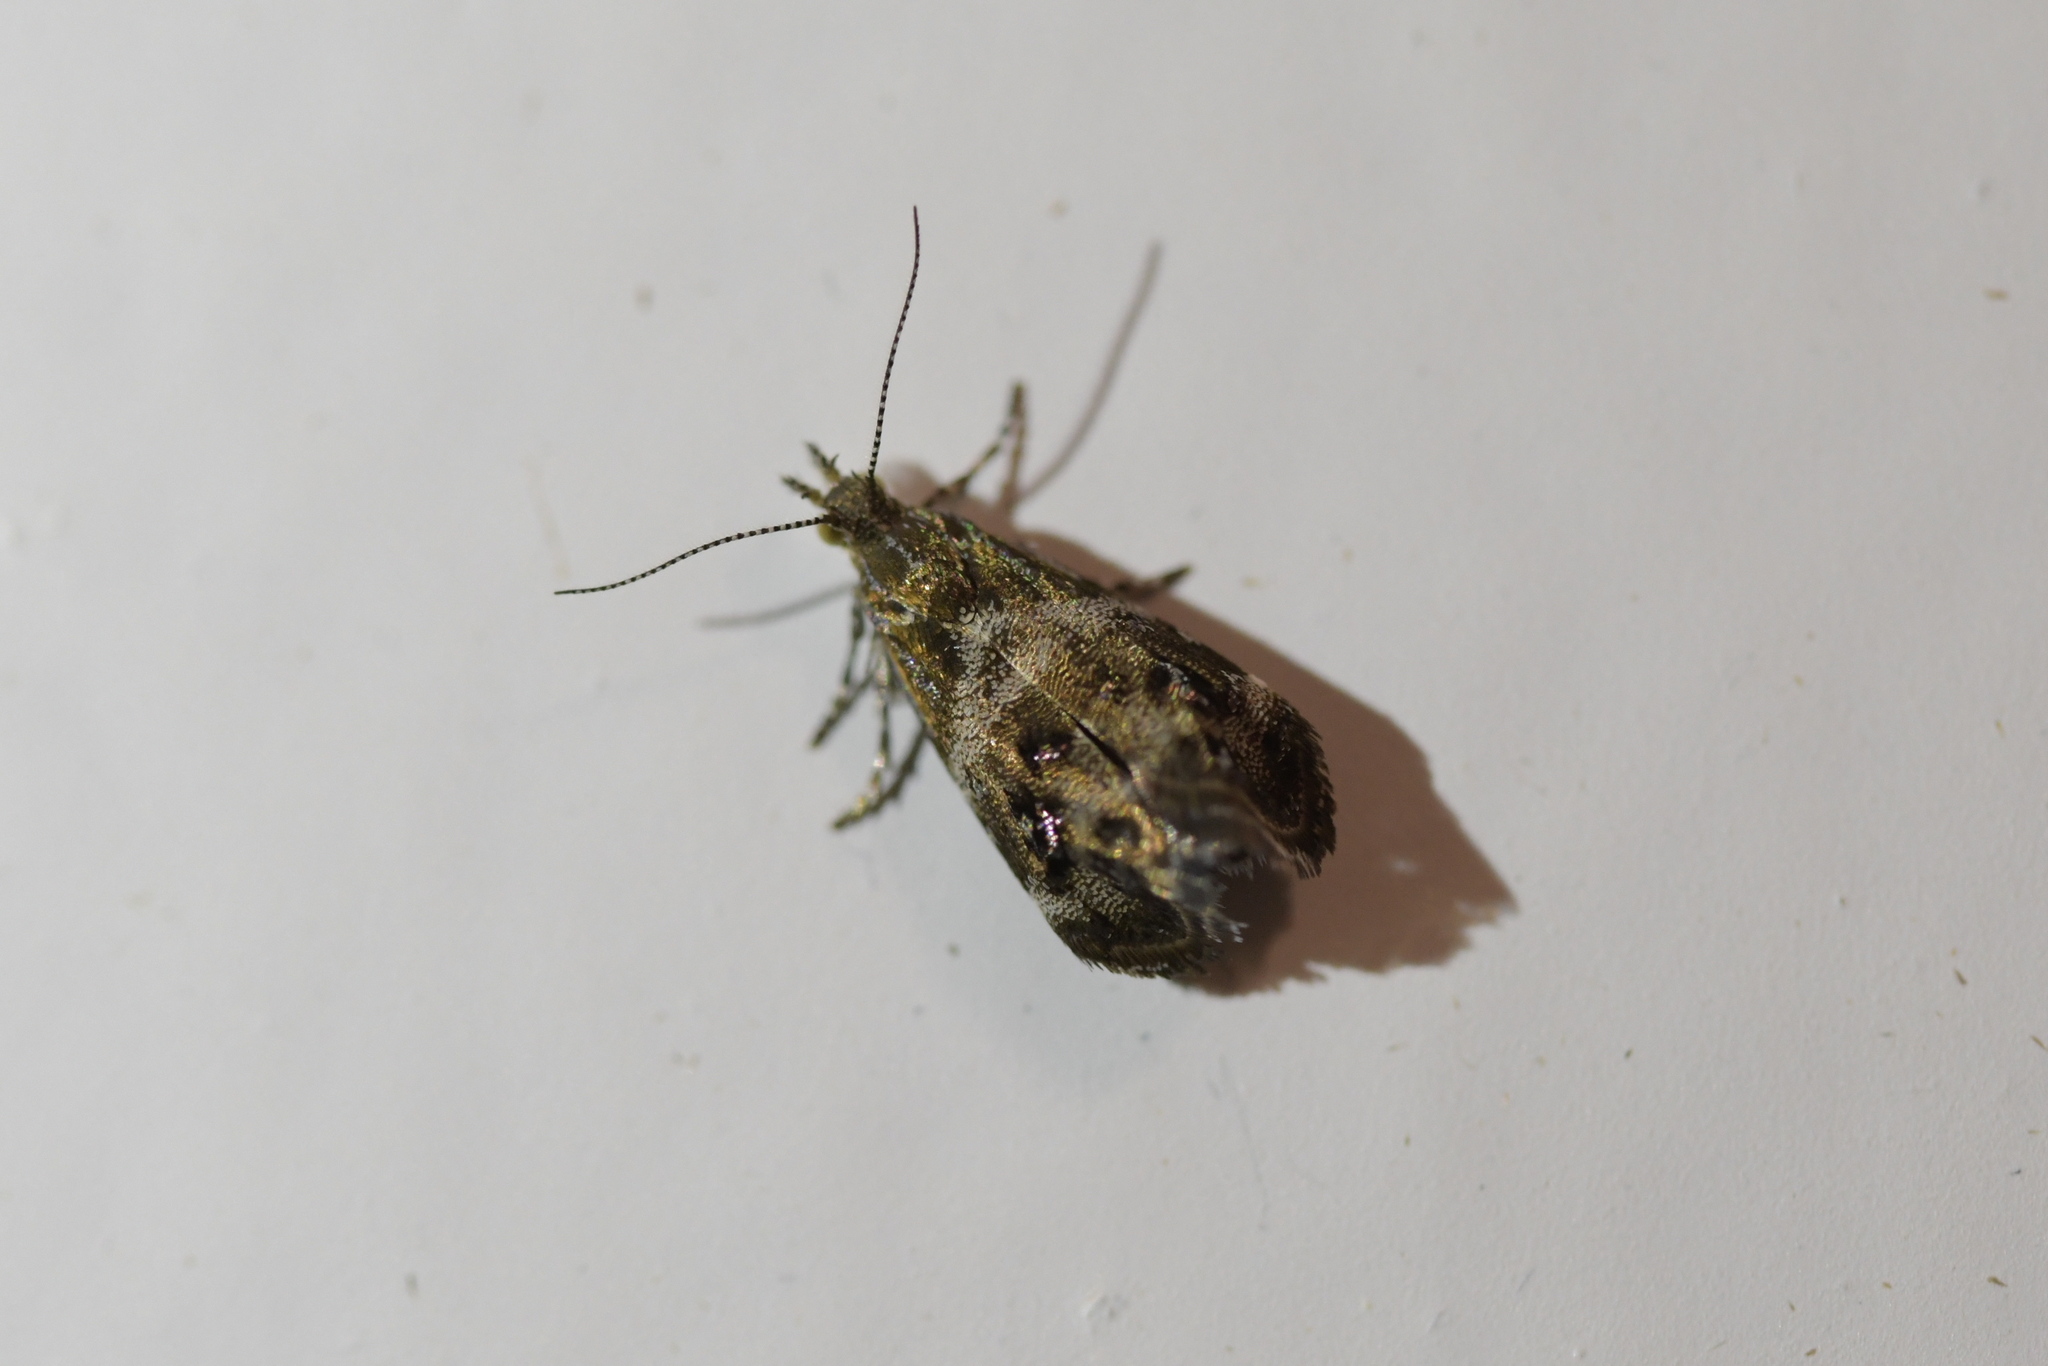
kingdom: Animalia
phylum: Arthropoda
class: Insecta
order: Lepidoptera
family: Choreutidae
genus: Tebenna
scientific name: Tebenna micalis
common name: Vagrant twitcher
